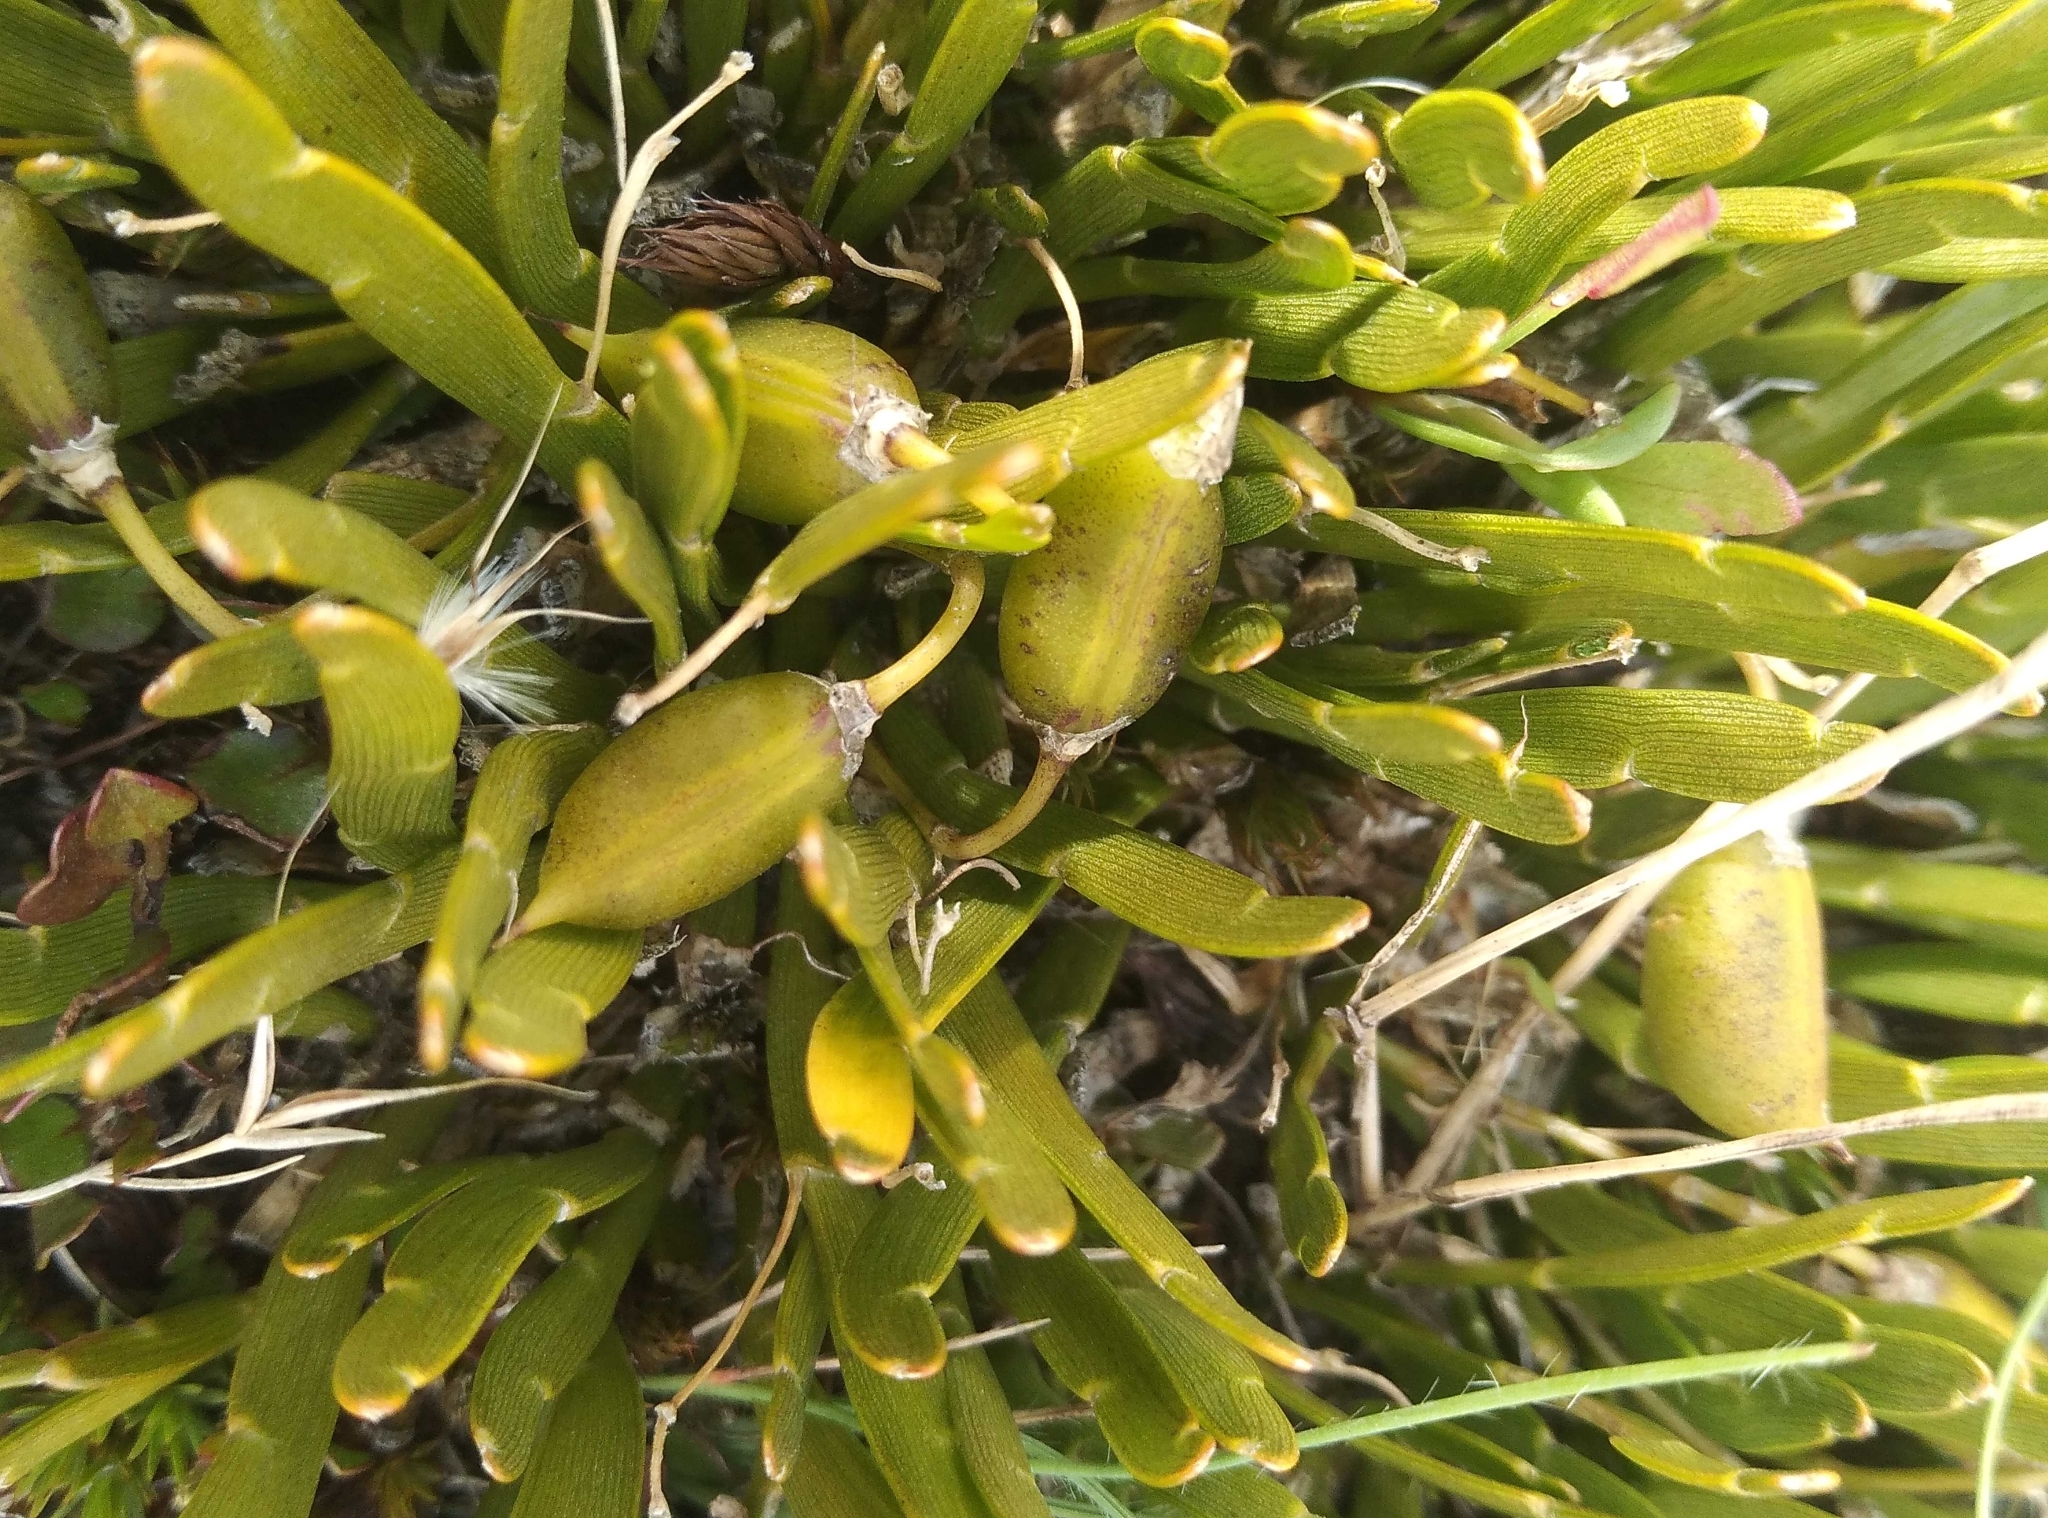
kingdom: Plantae
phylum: Tracheophyta
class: Magnoliopsida
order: Fabales
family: Fabaceae
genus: Carmichaelia
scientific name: Carmichaelia corrugata
